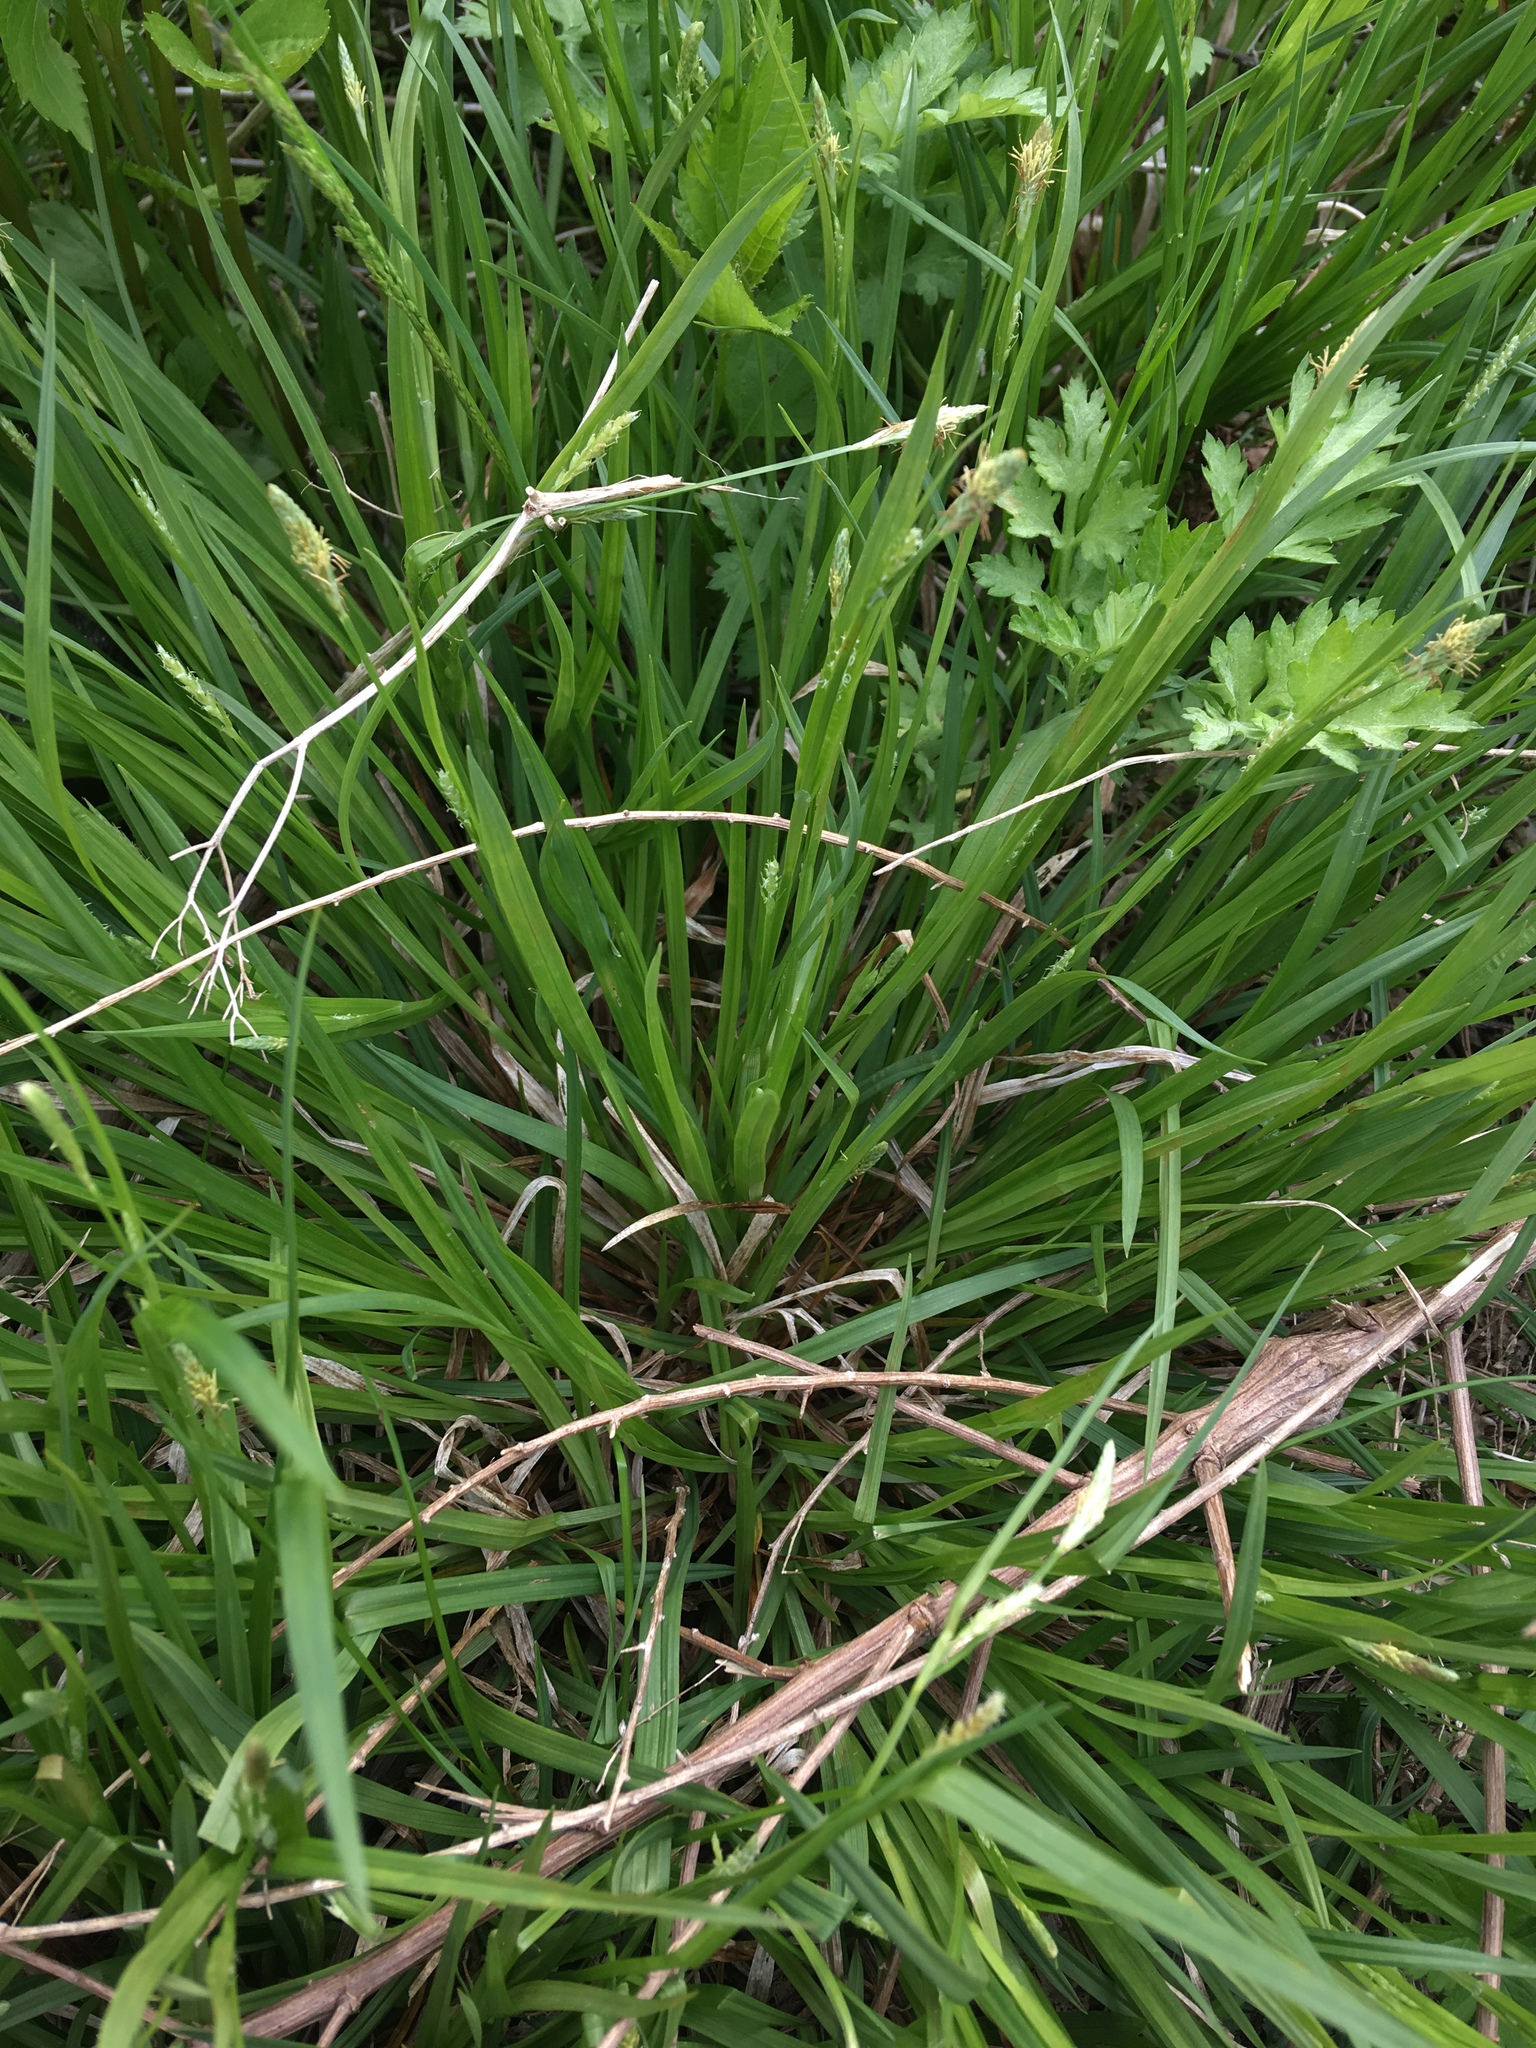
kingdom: Plantae
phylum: Tracheophyta
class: Liliopsida
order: Poales
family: Cyperaceae
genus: Carex
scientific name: Carex blanda
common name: Bland sedge
